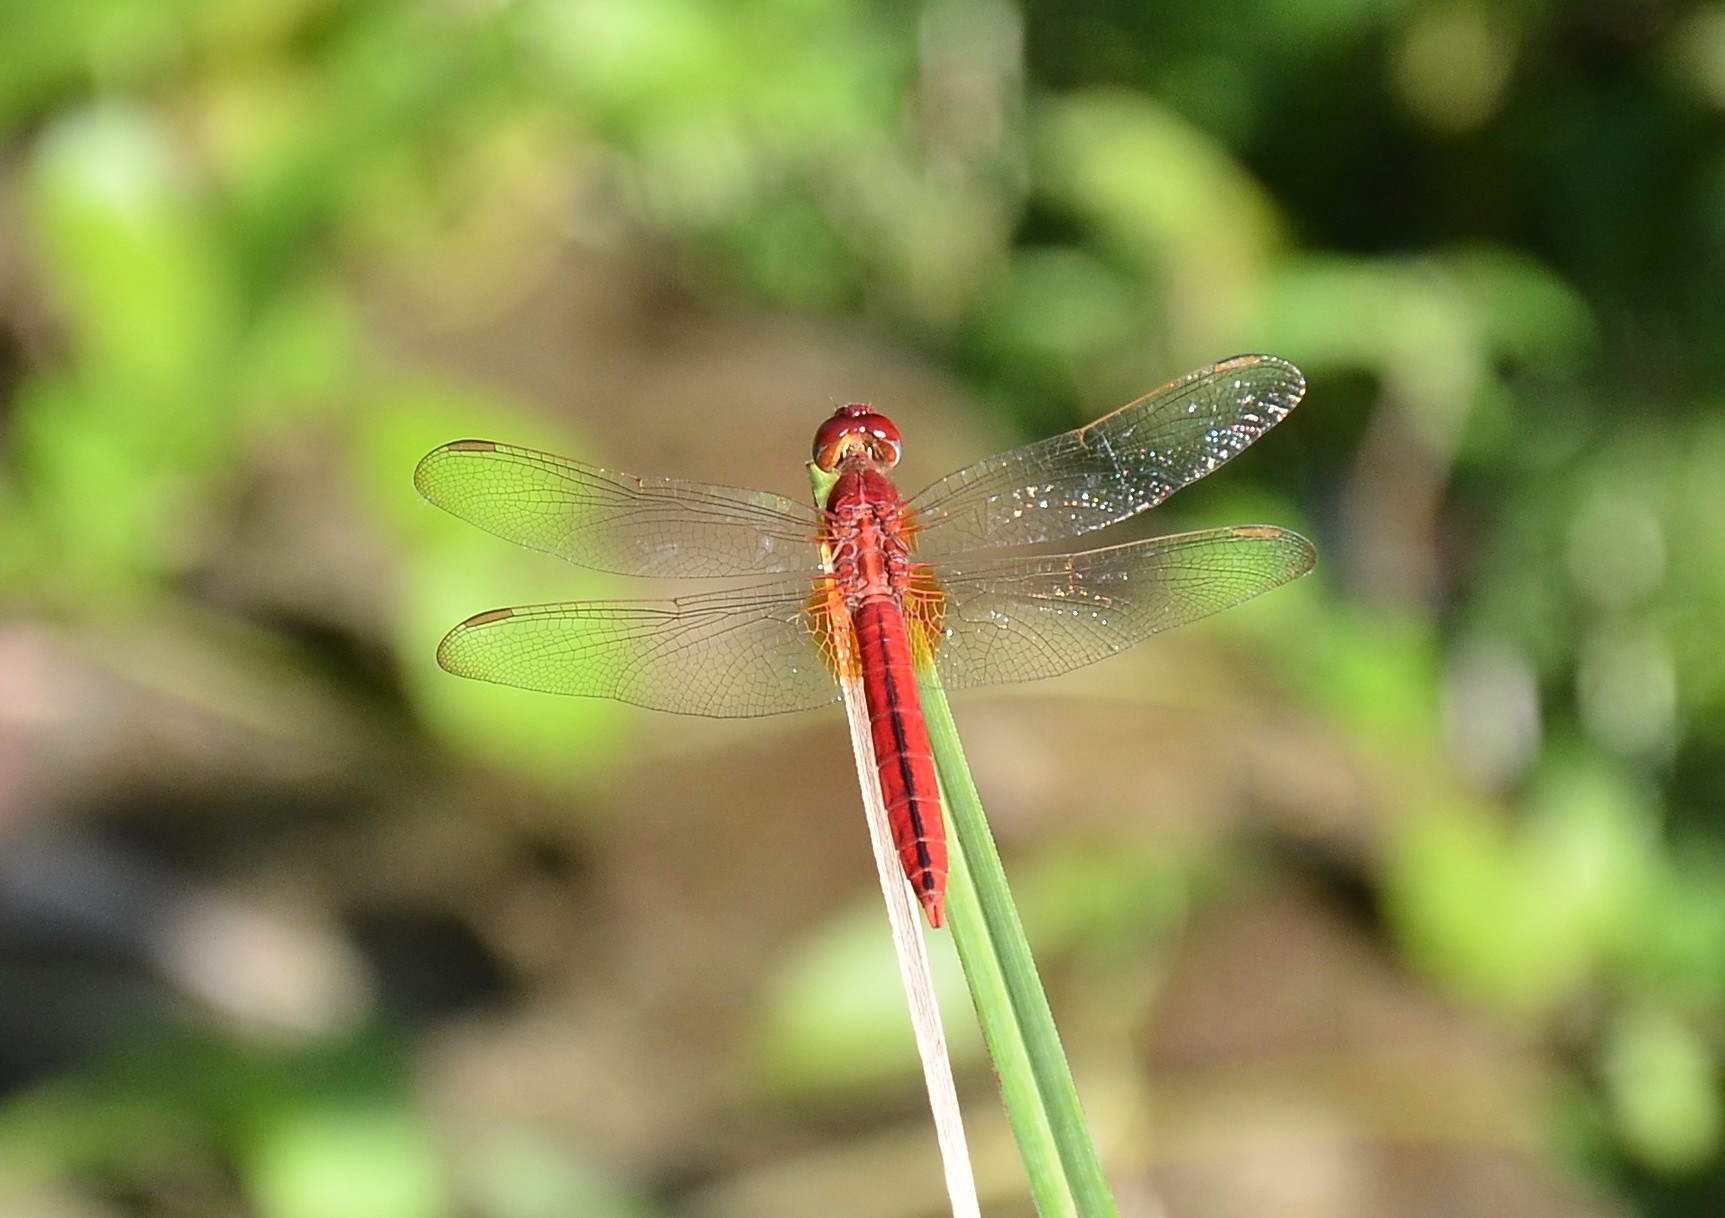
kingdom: Animalia
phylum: Arthropoda
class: Insecta
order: Odonata
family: Libellulidae
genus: Crocothemis
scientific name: Crocothemis servilia
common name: Scarlet skimmer
